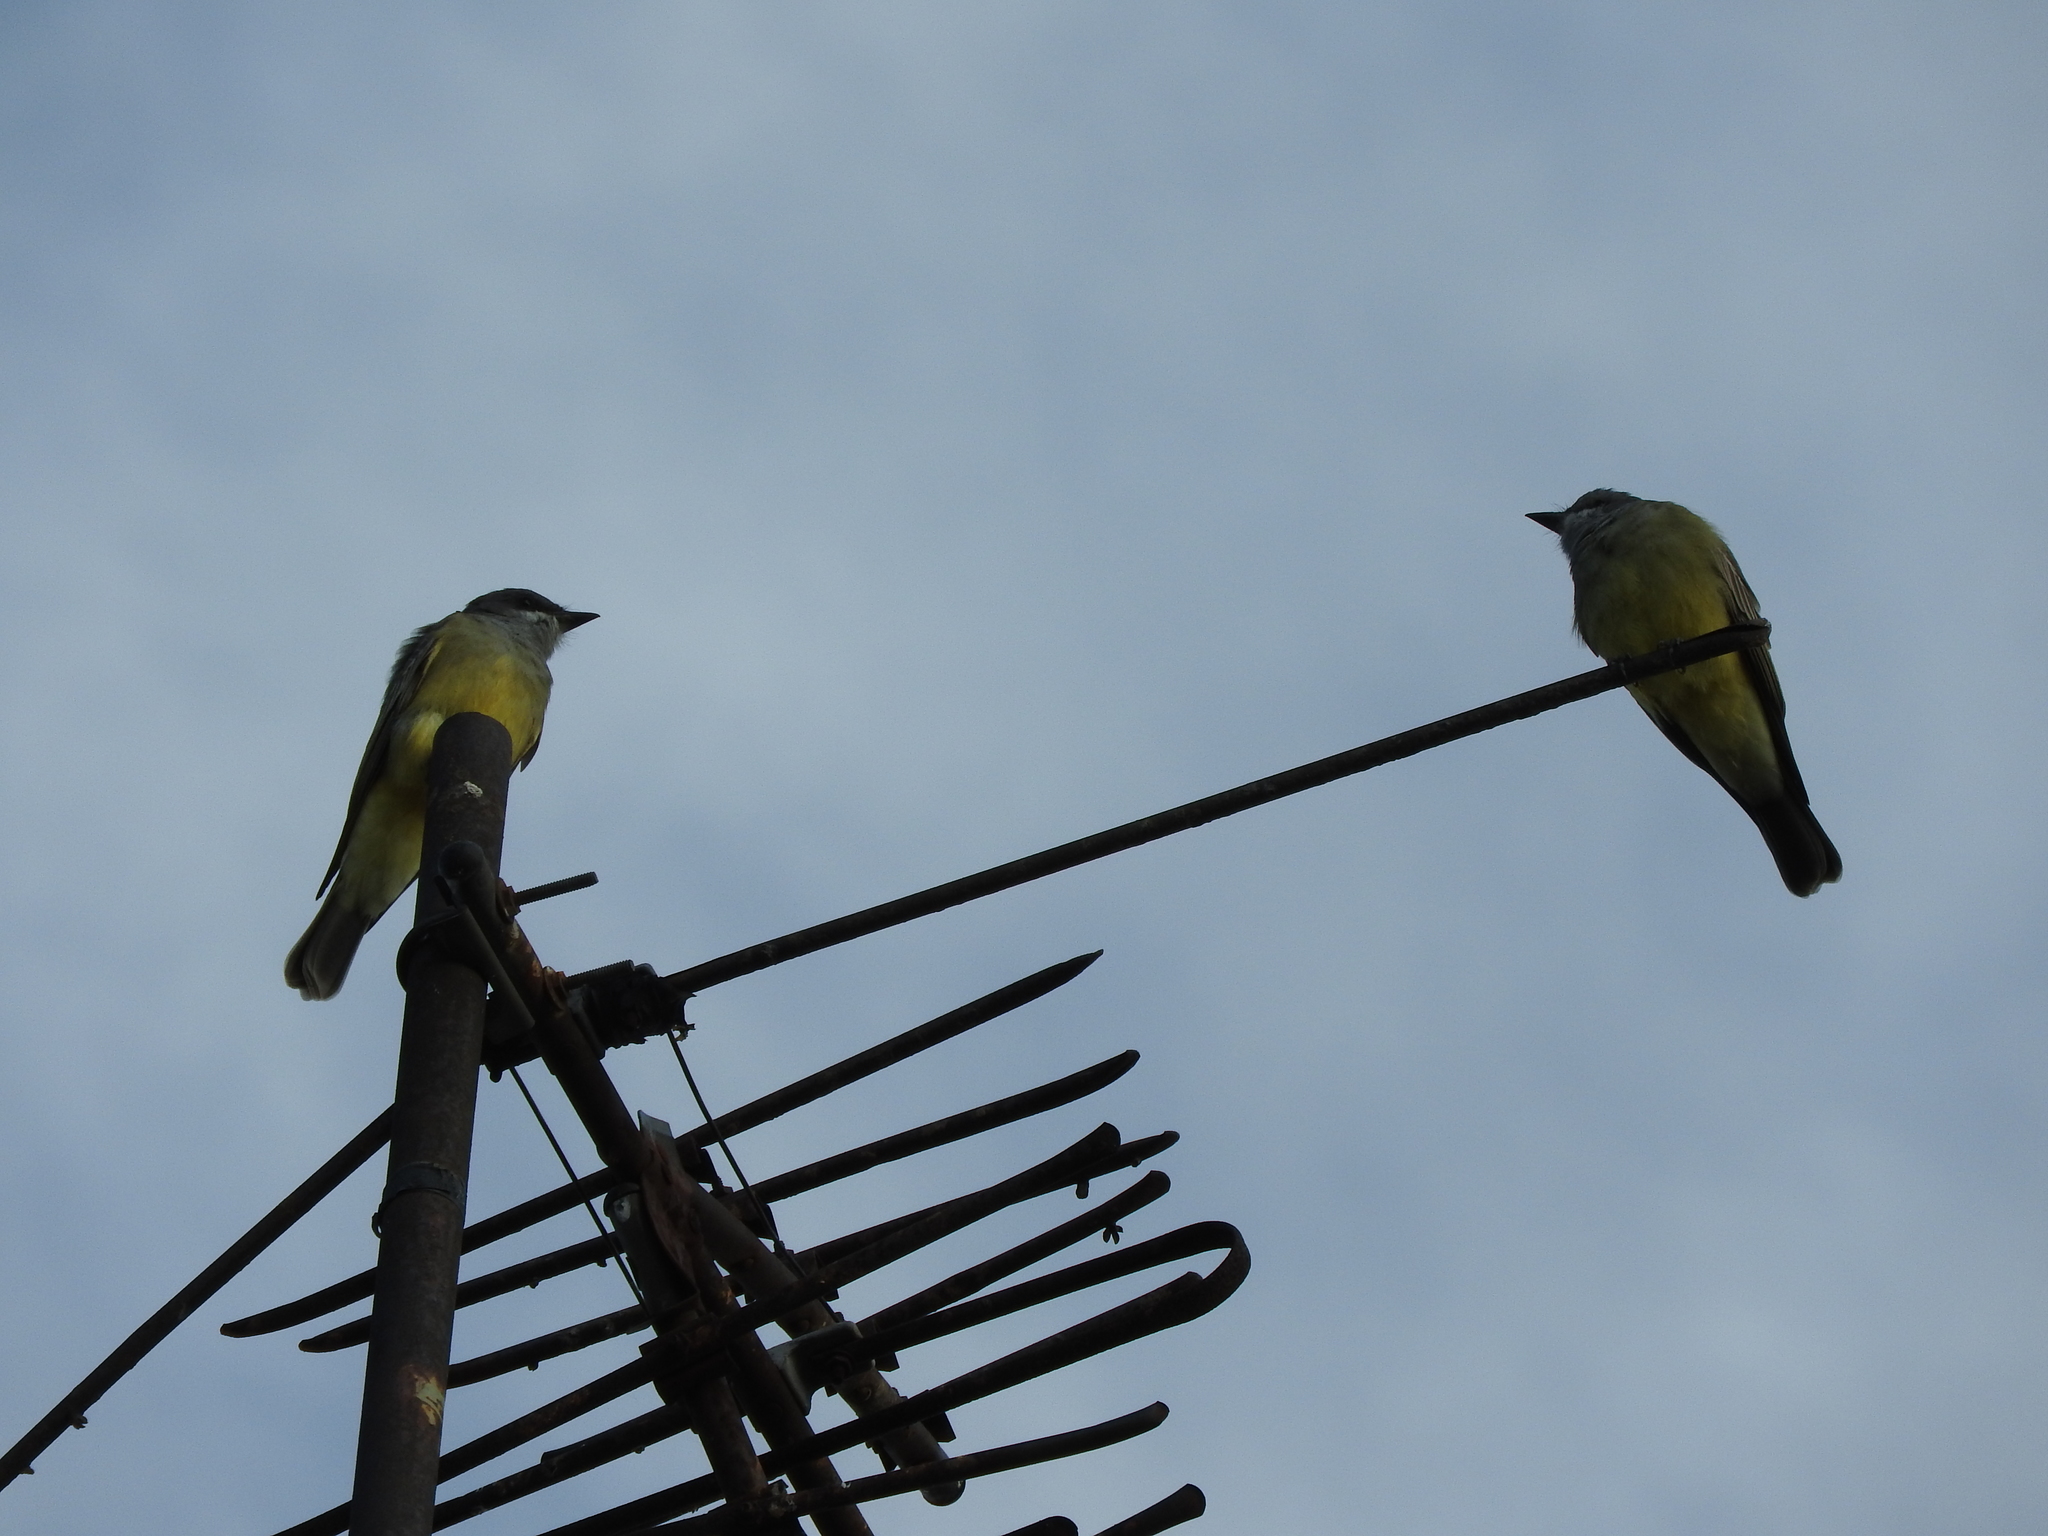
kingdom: Animalia
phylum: Chordata
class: Aves
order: Passeriformes
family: Tyrannidae
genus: Tyrannus
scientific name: Tyrannus vociferans
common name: Cassin's kingbird
